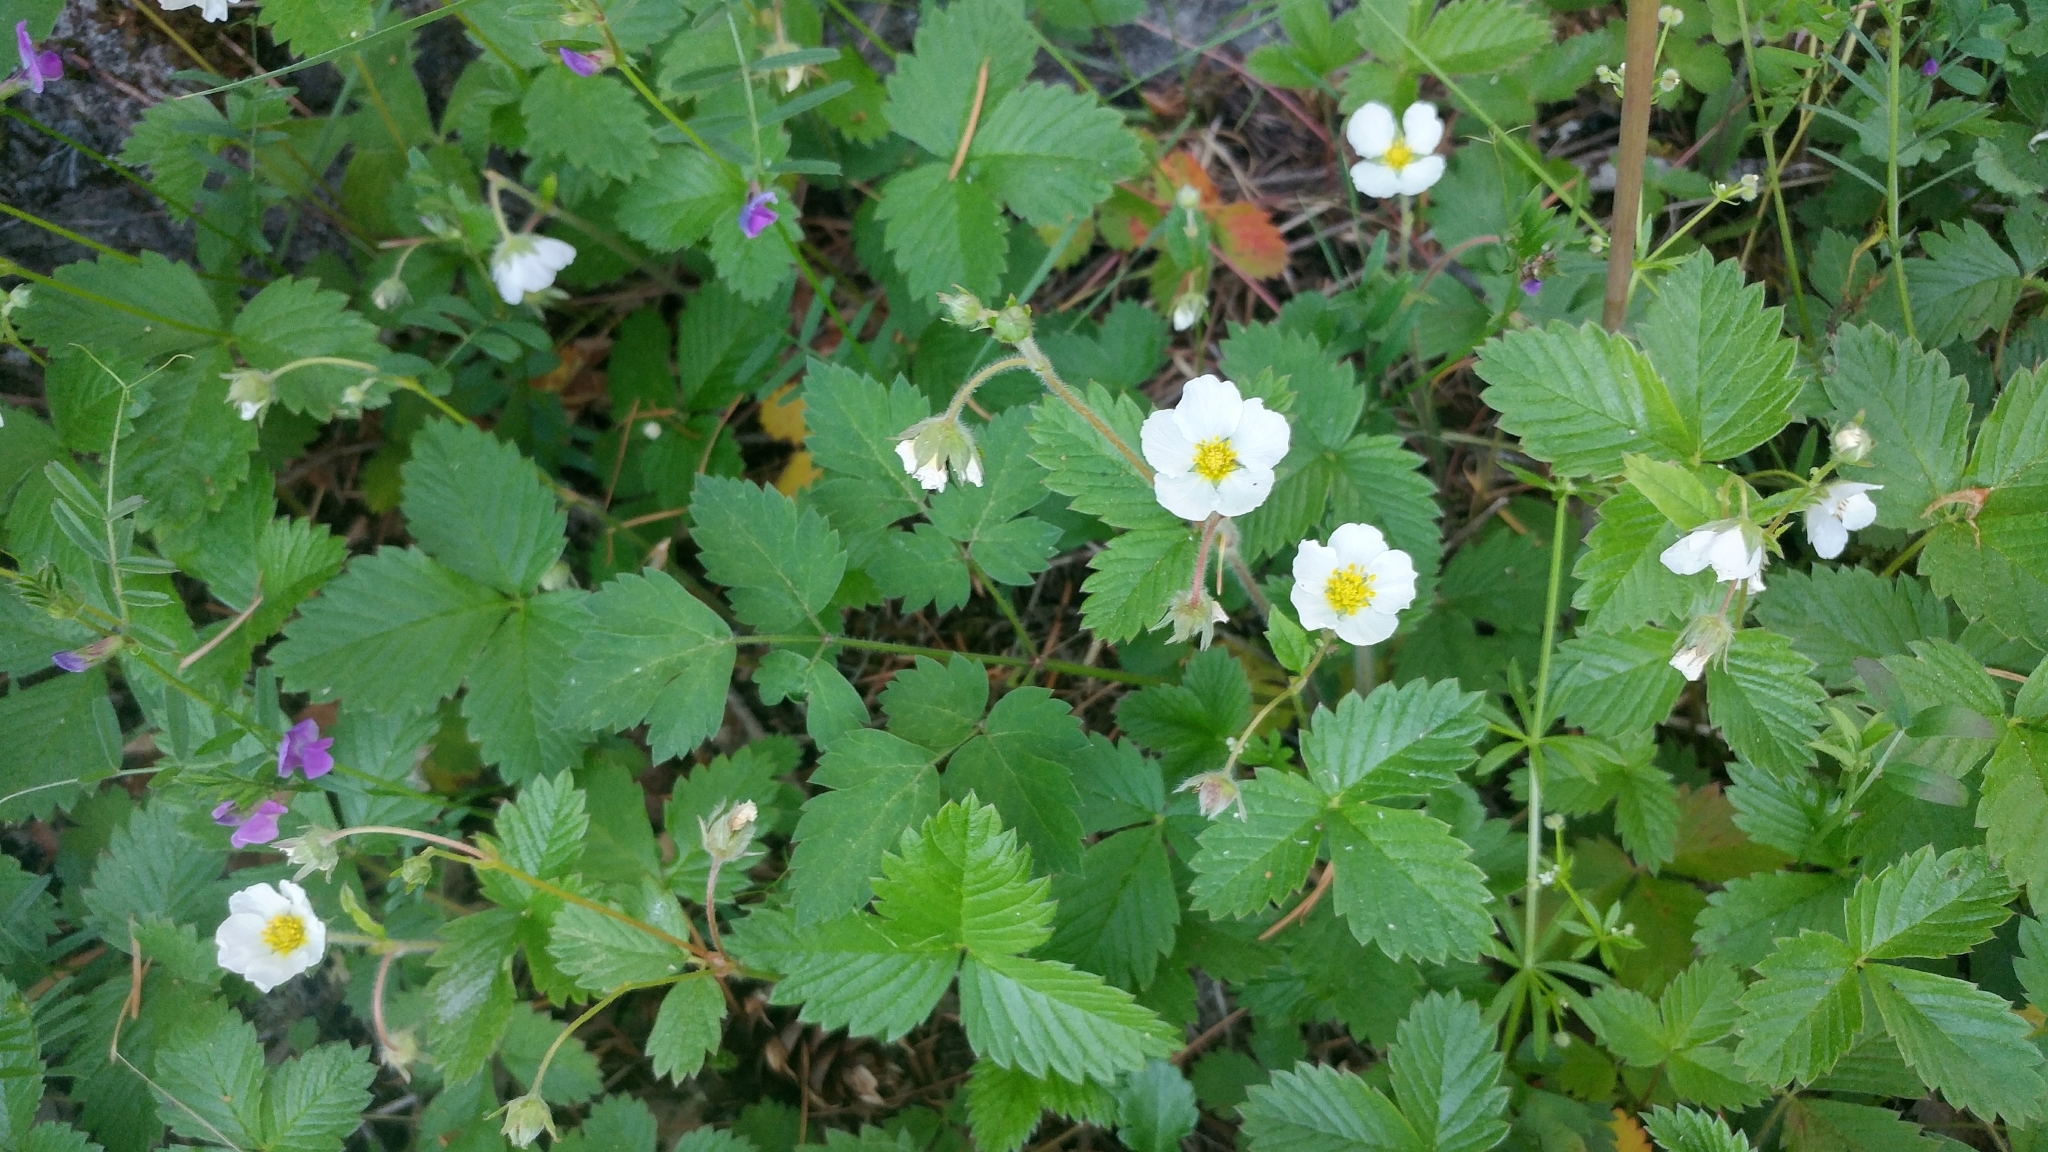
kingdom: Plantae
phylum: Tracheophyta
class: Magnoliopsida
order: Rosales
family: Rosaceae
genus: Fragaria
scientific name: Fragaria vesca
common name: Wild strawberry
